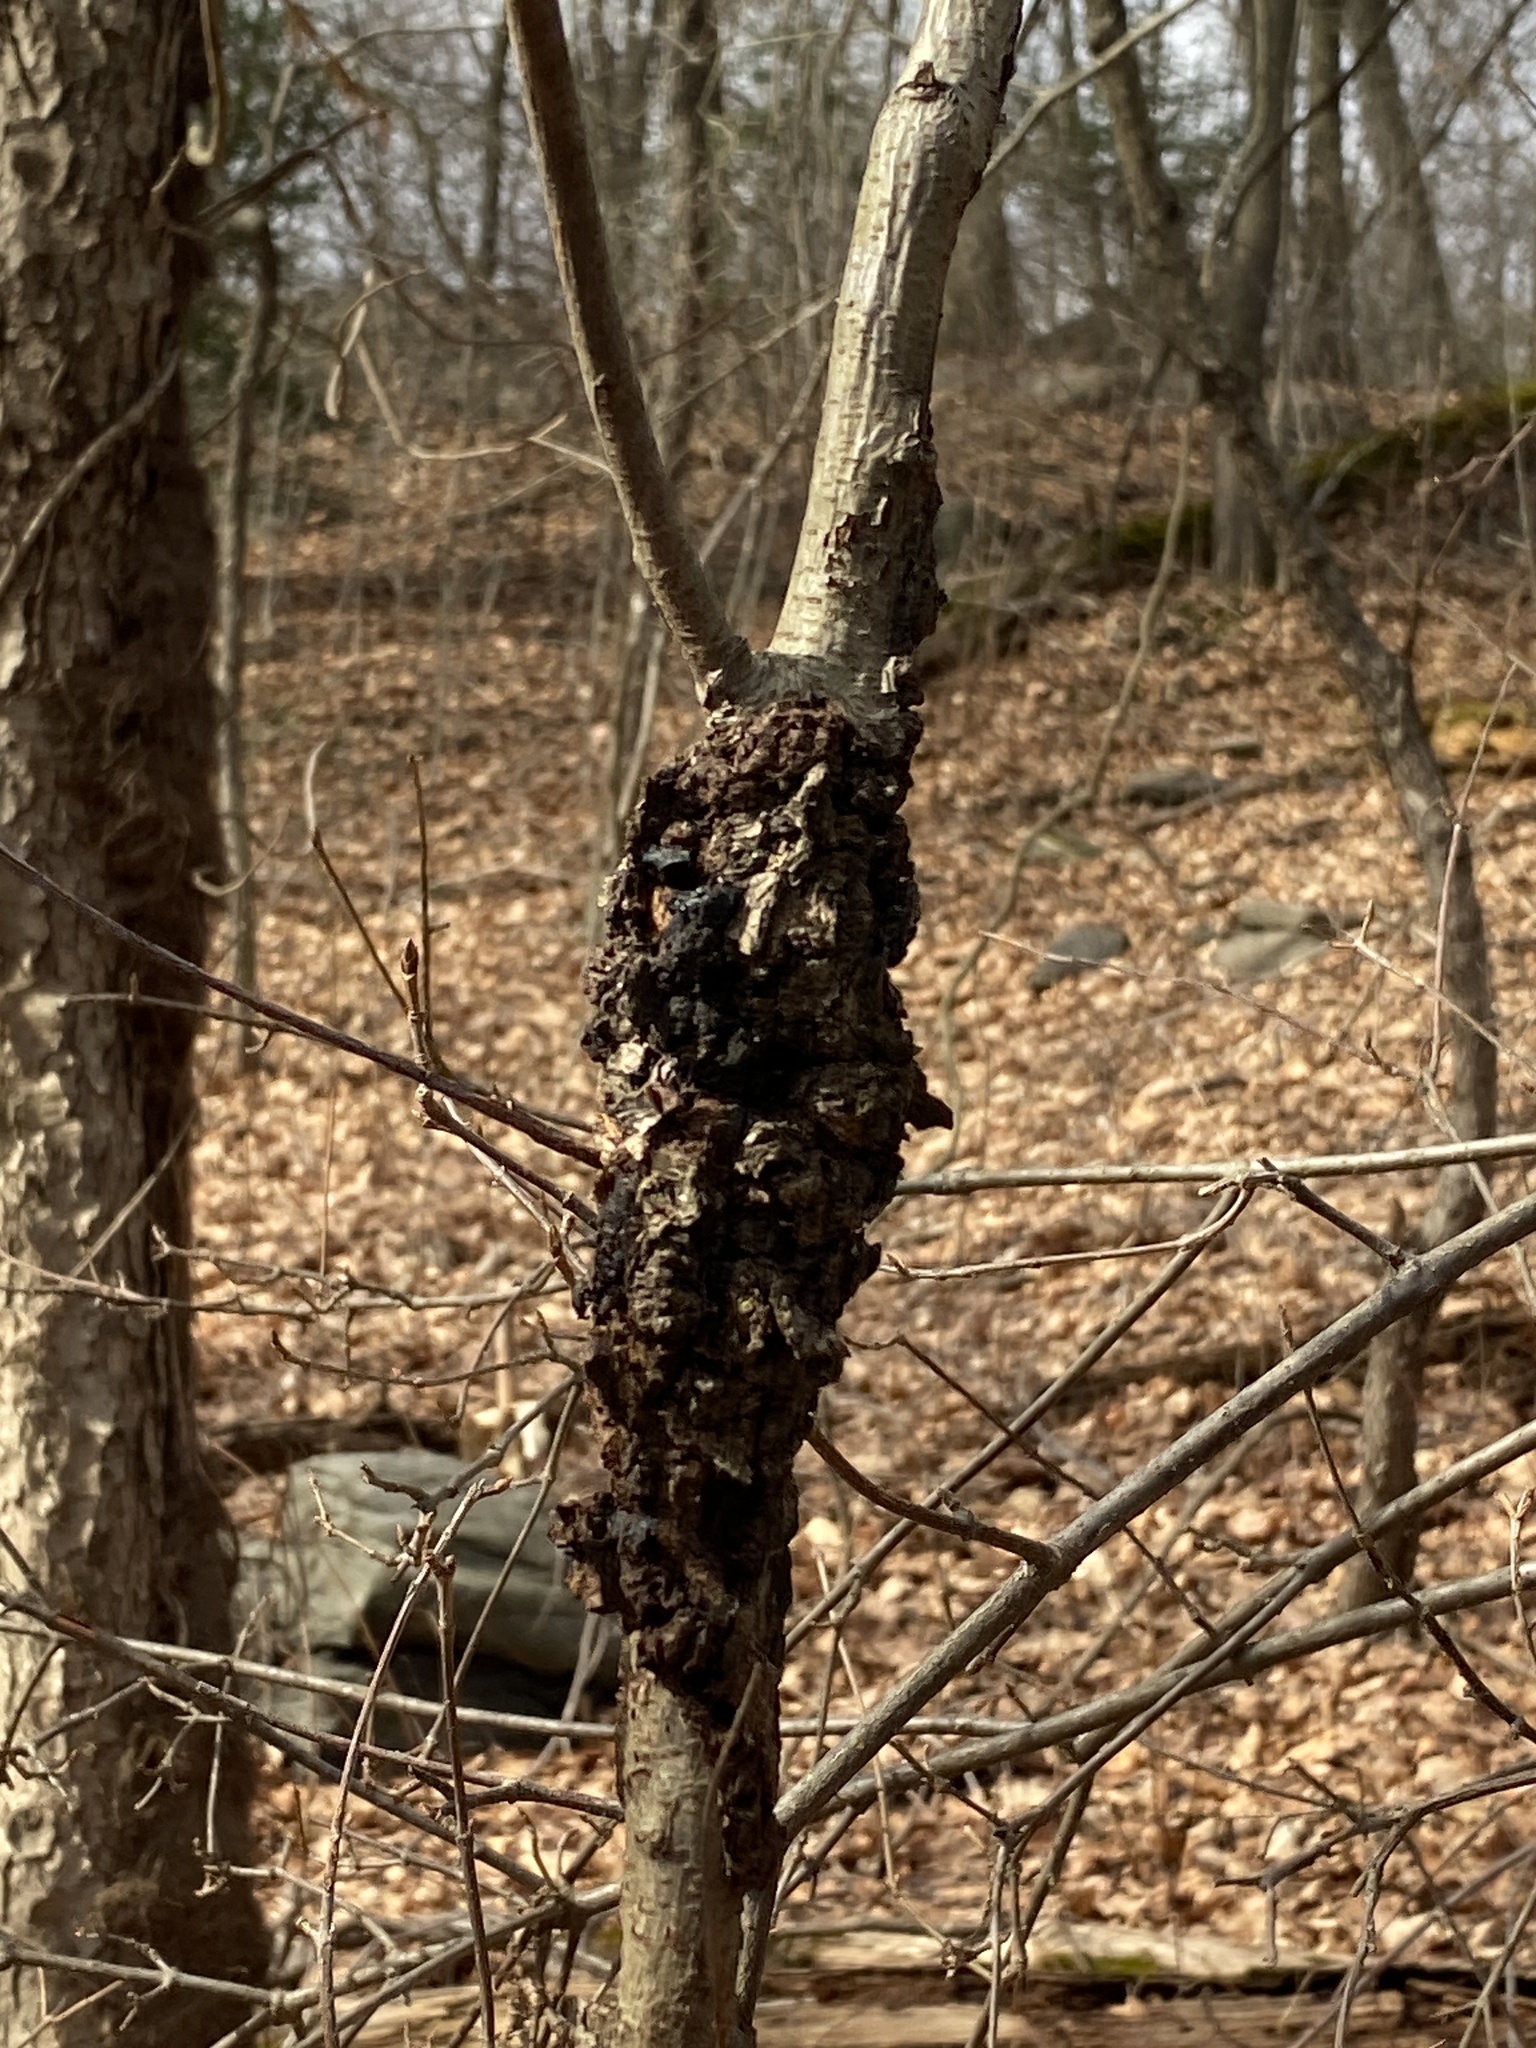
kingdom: Fungi
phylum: Ascomycota
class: Dothideomycetes
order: Venturiales
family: Venturiaceae
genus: Apiosporina
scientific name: Apiosporina morbosa
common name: Black knot
